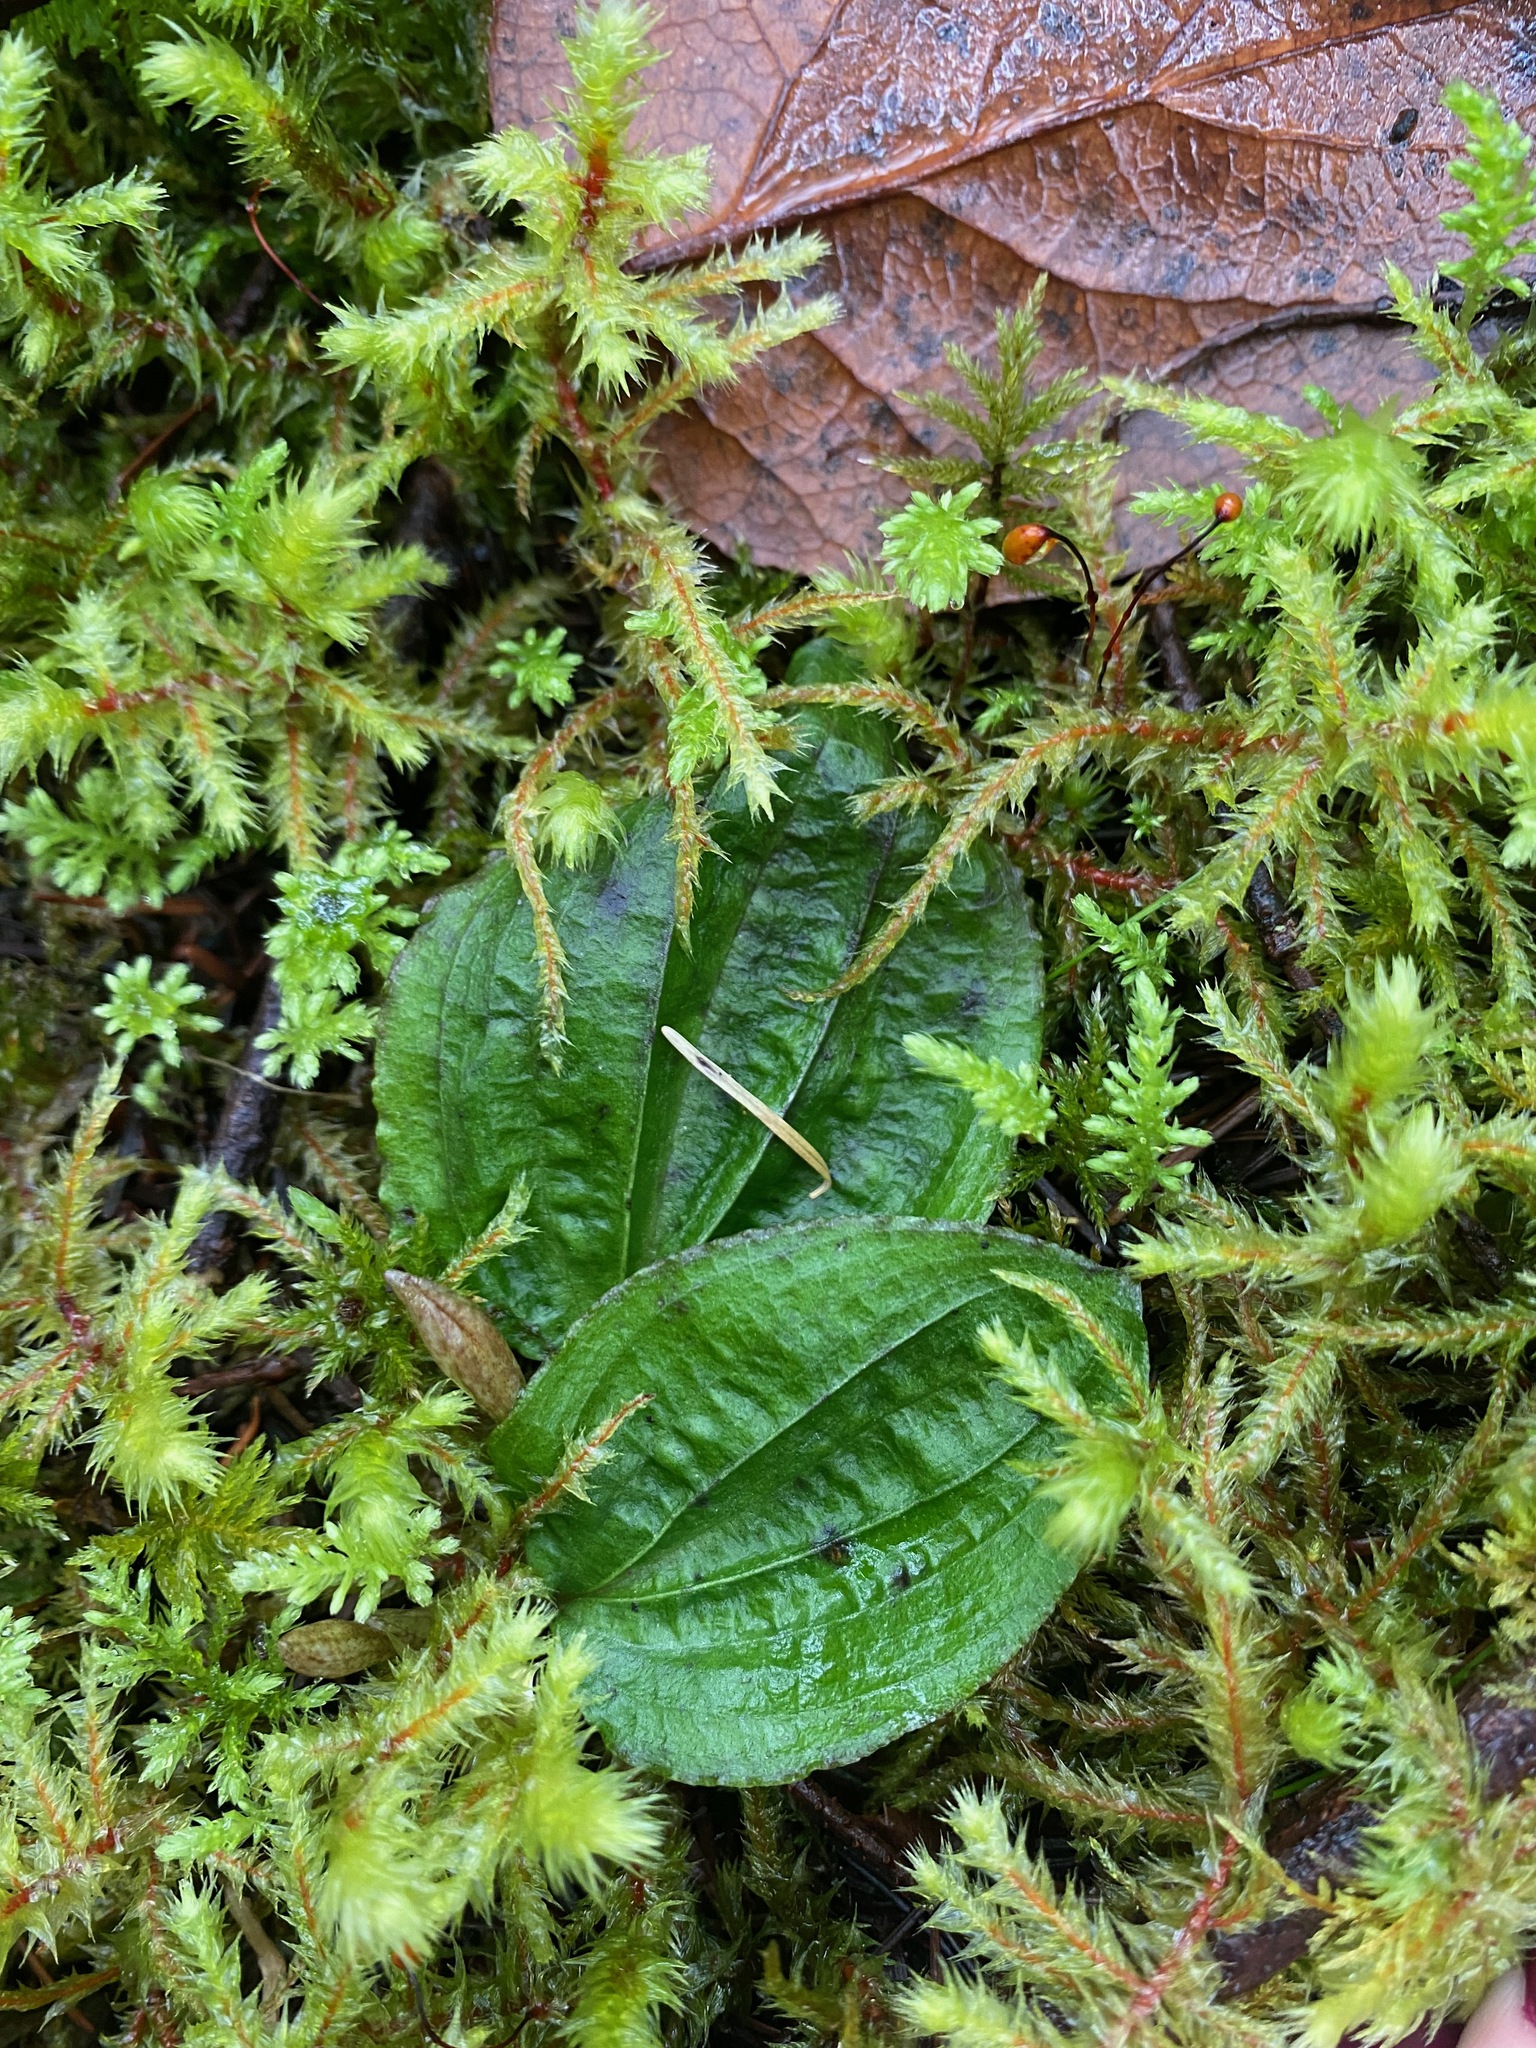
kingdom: Plantae
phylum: Tracheophyta
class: Liliopsida
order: Asparagales
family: Orchidaceae
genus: Calypso
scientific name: Calypso bulbosa
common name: Calypso
